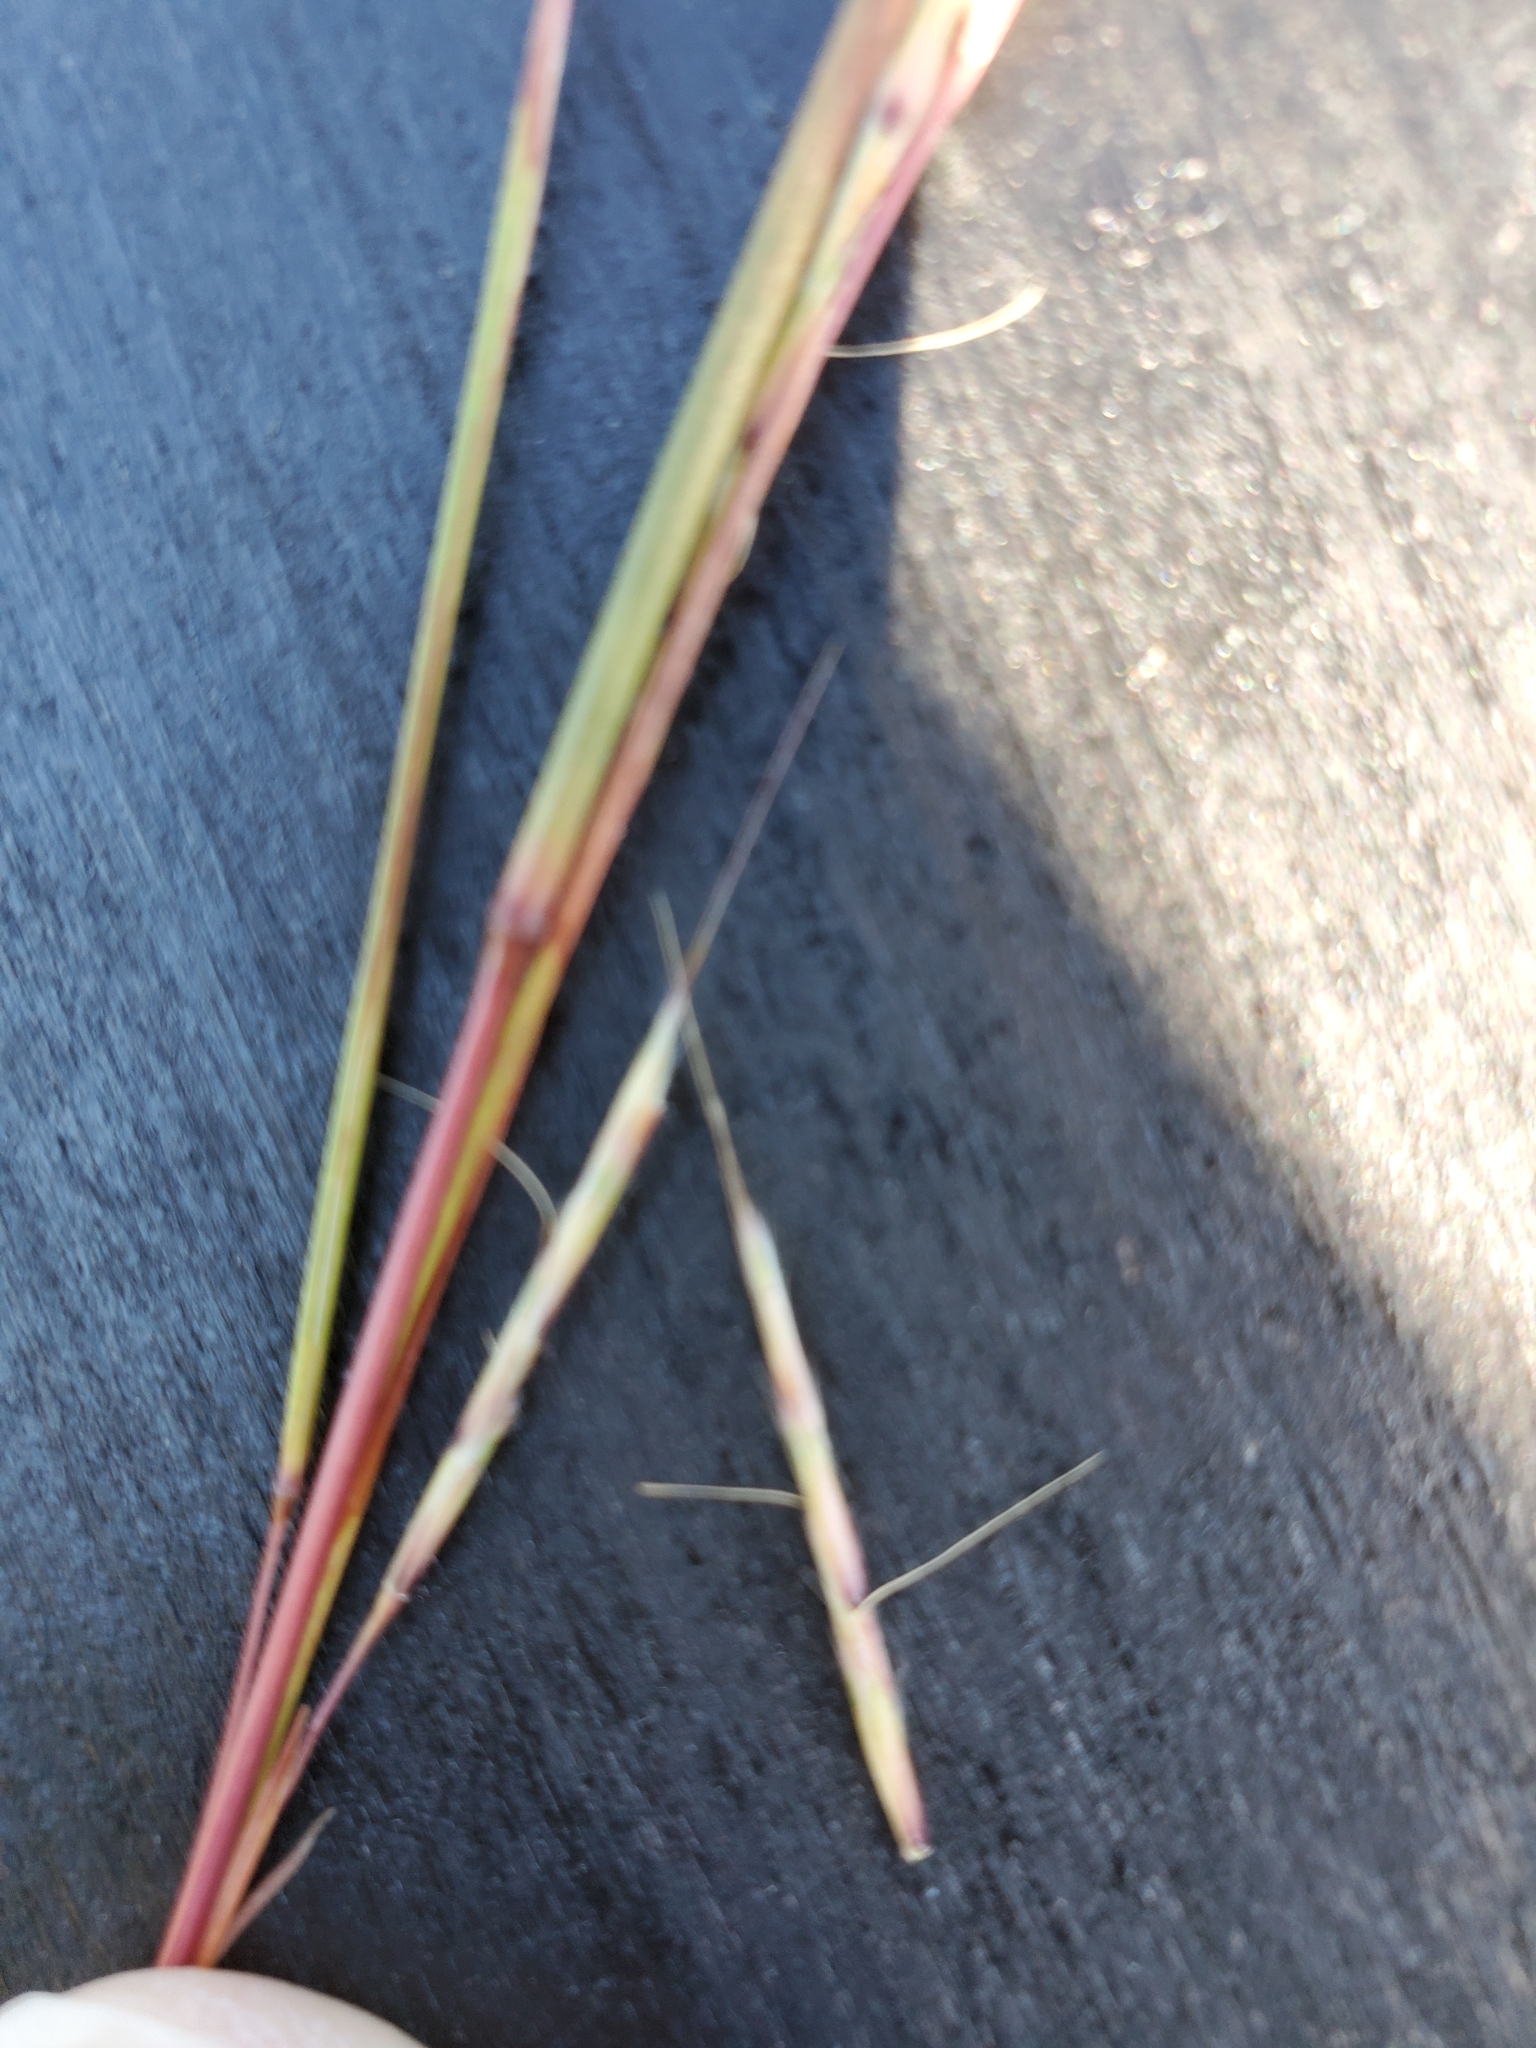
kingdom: Plantae
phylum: Tracheophyta
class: Liliopsida
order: Poales
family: Poaceae
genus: Schizachyrium
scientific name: Schizachyrium scoparium
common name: Little bluestem
